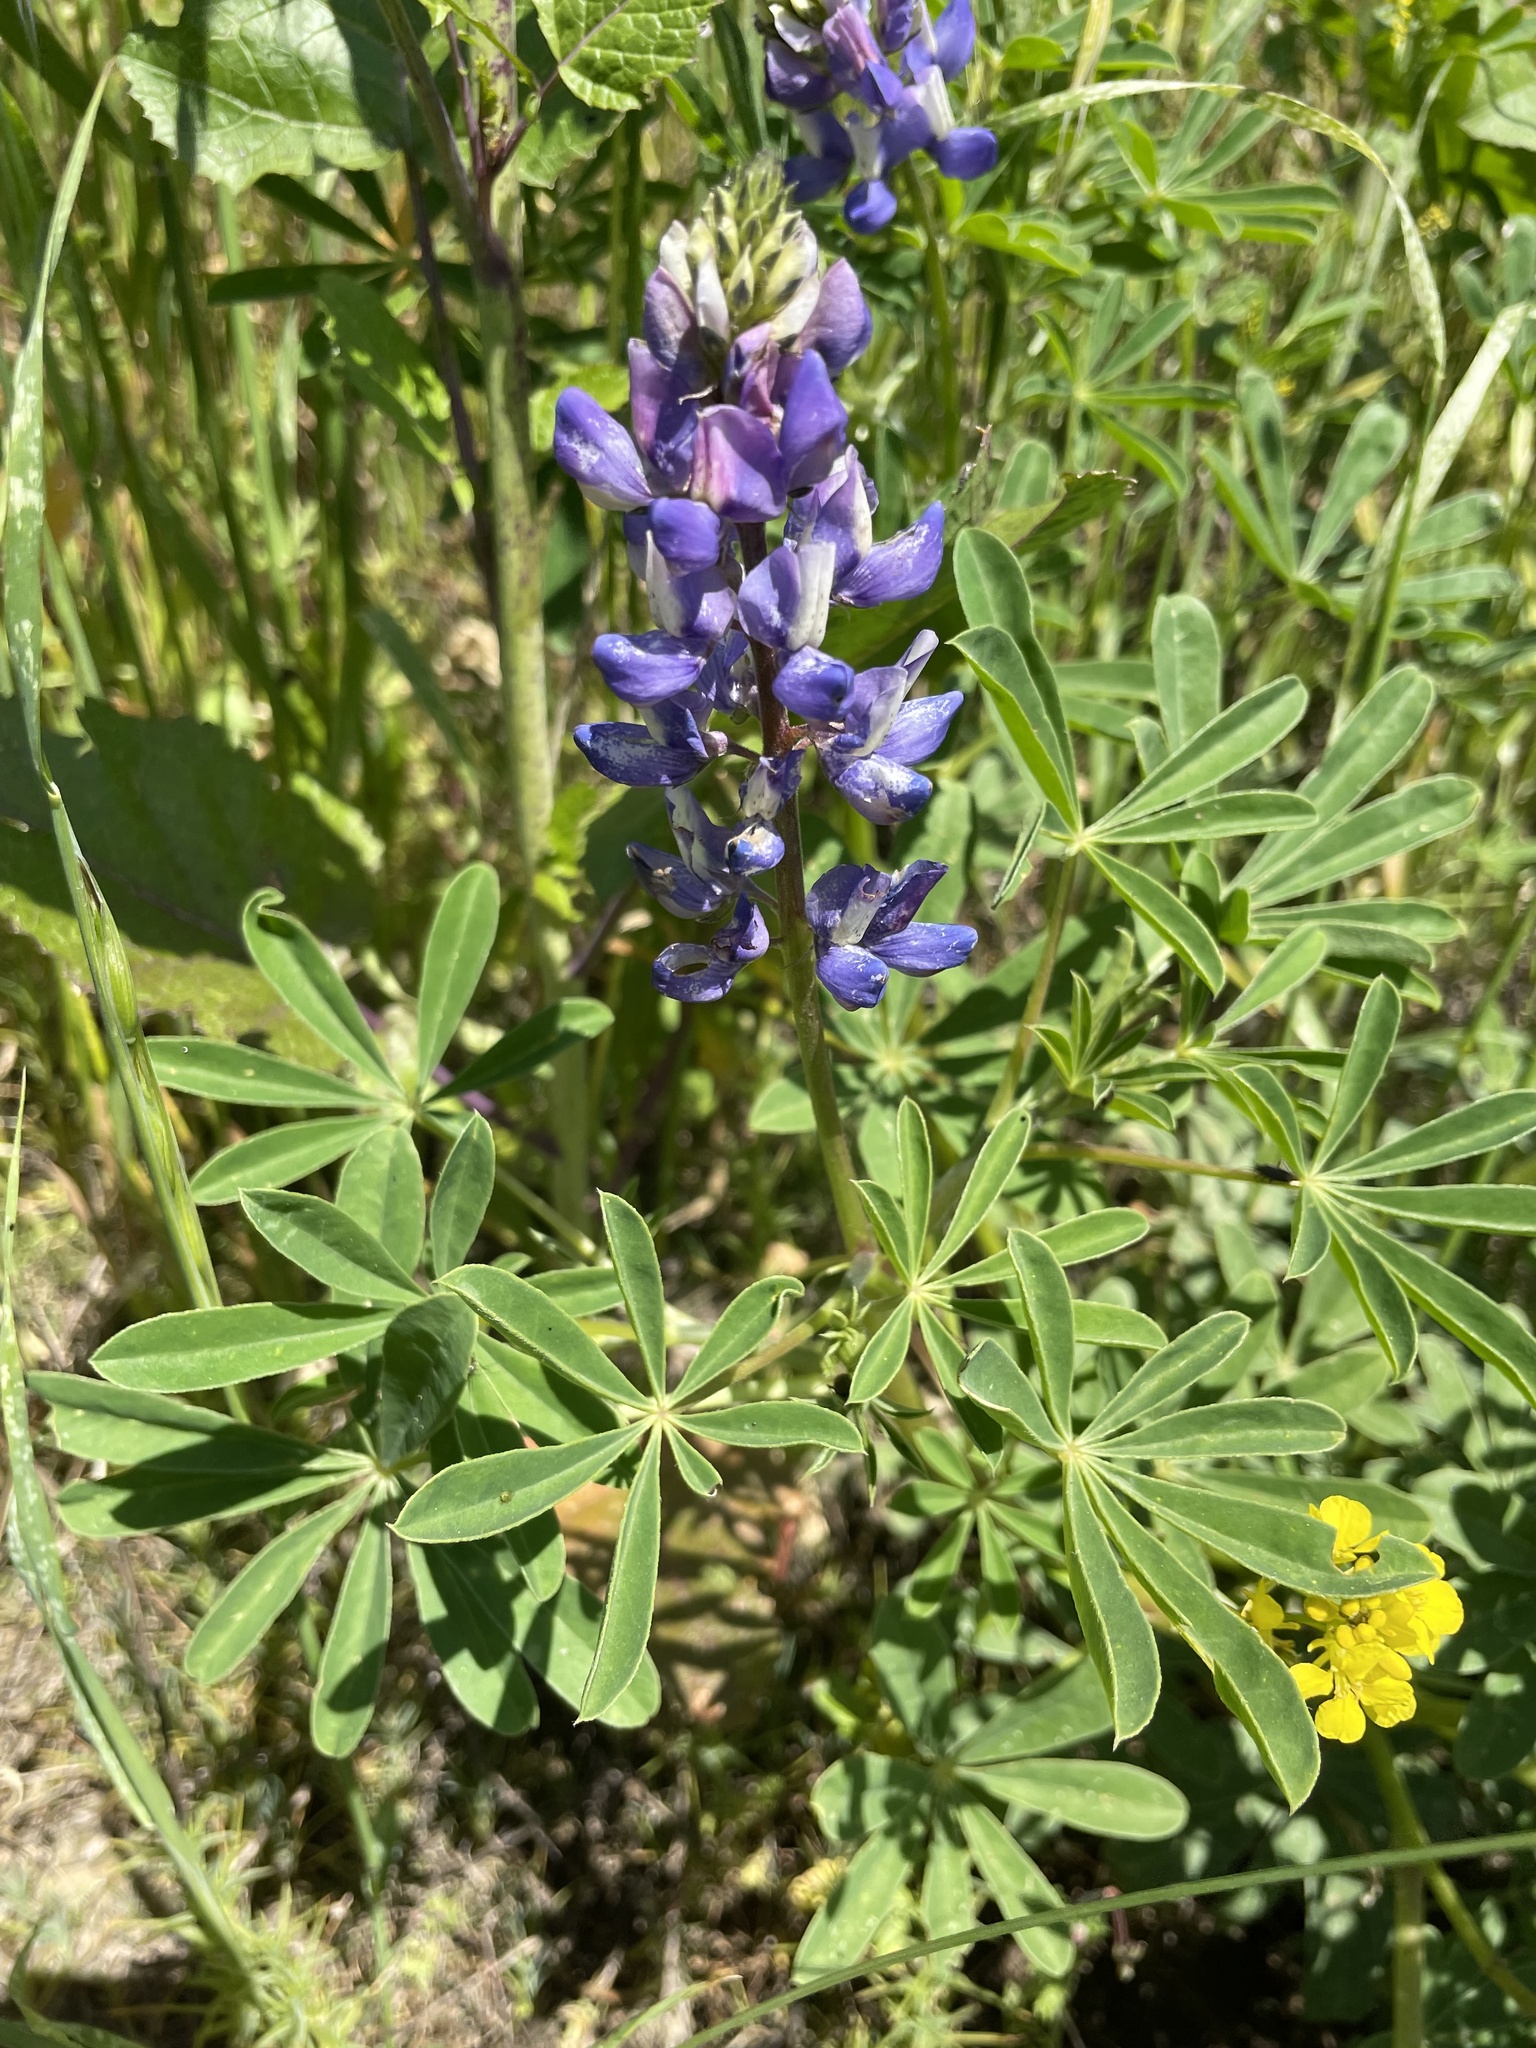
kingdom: Plantae
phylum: Tracheophyta
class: Magnoliopsida
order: Fabales
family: Fabaceae
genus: Lupinus
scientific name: Lupinus succulentus
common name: Arroyo lupine
